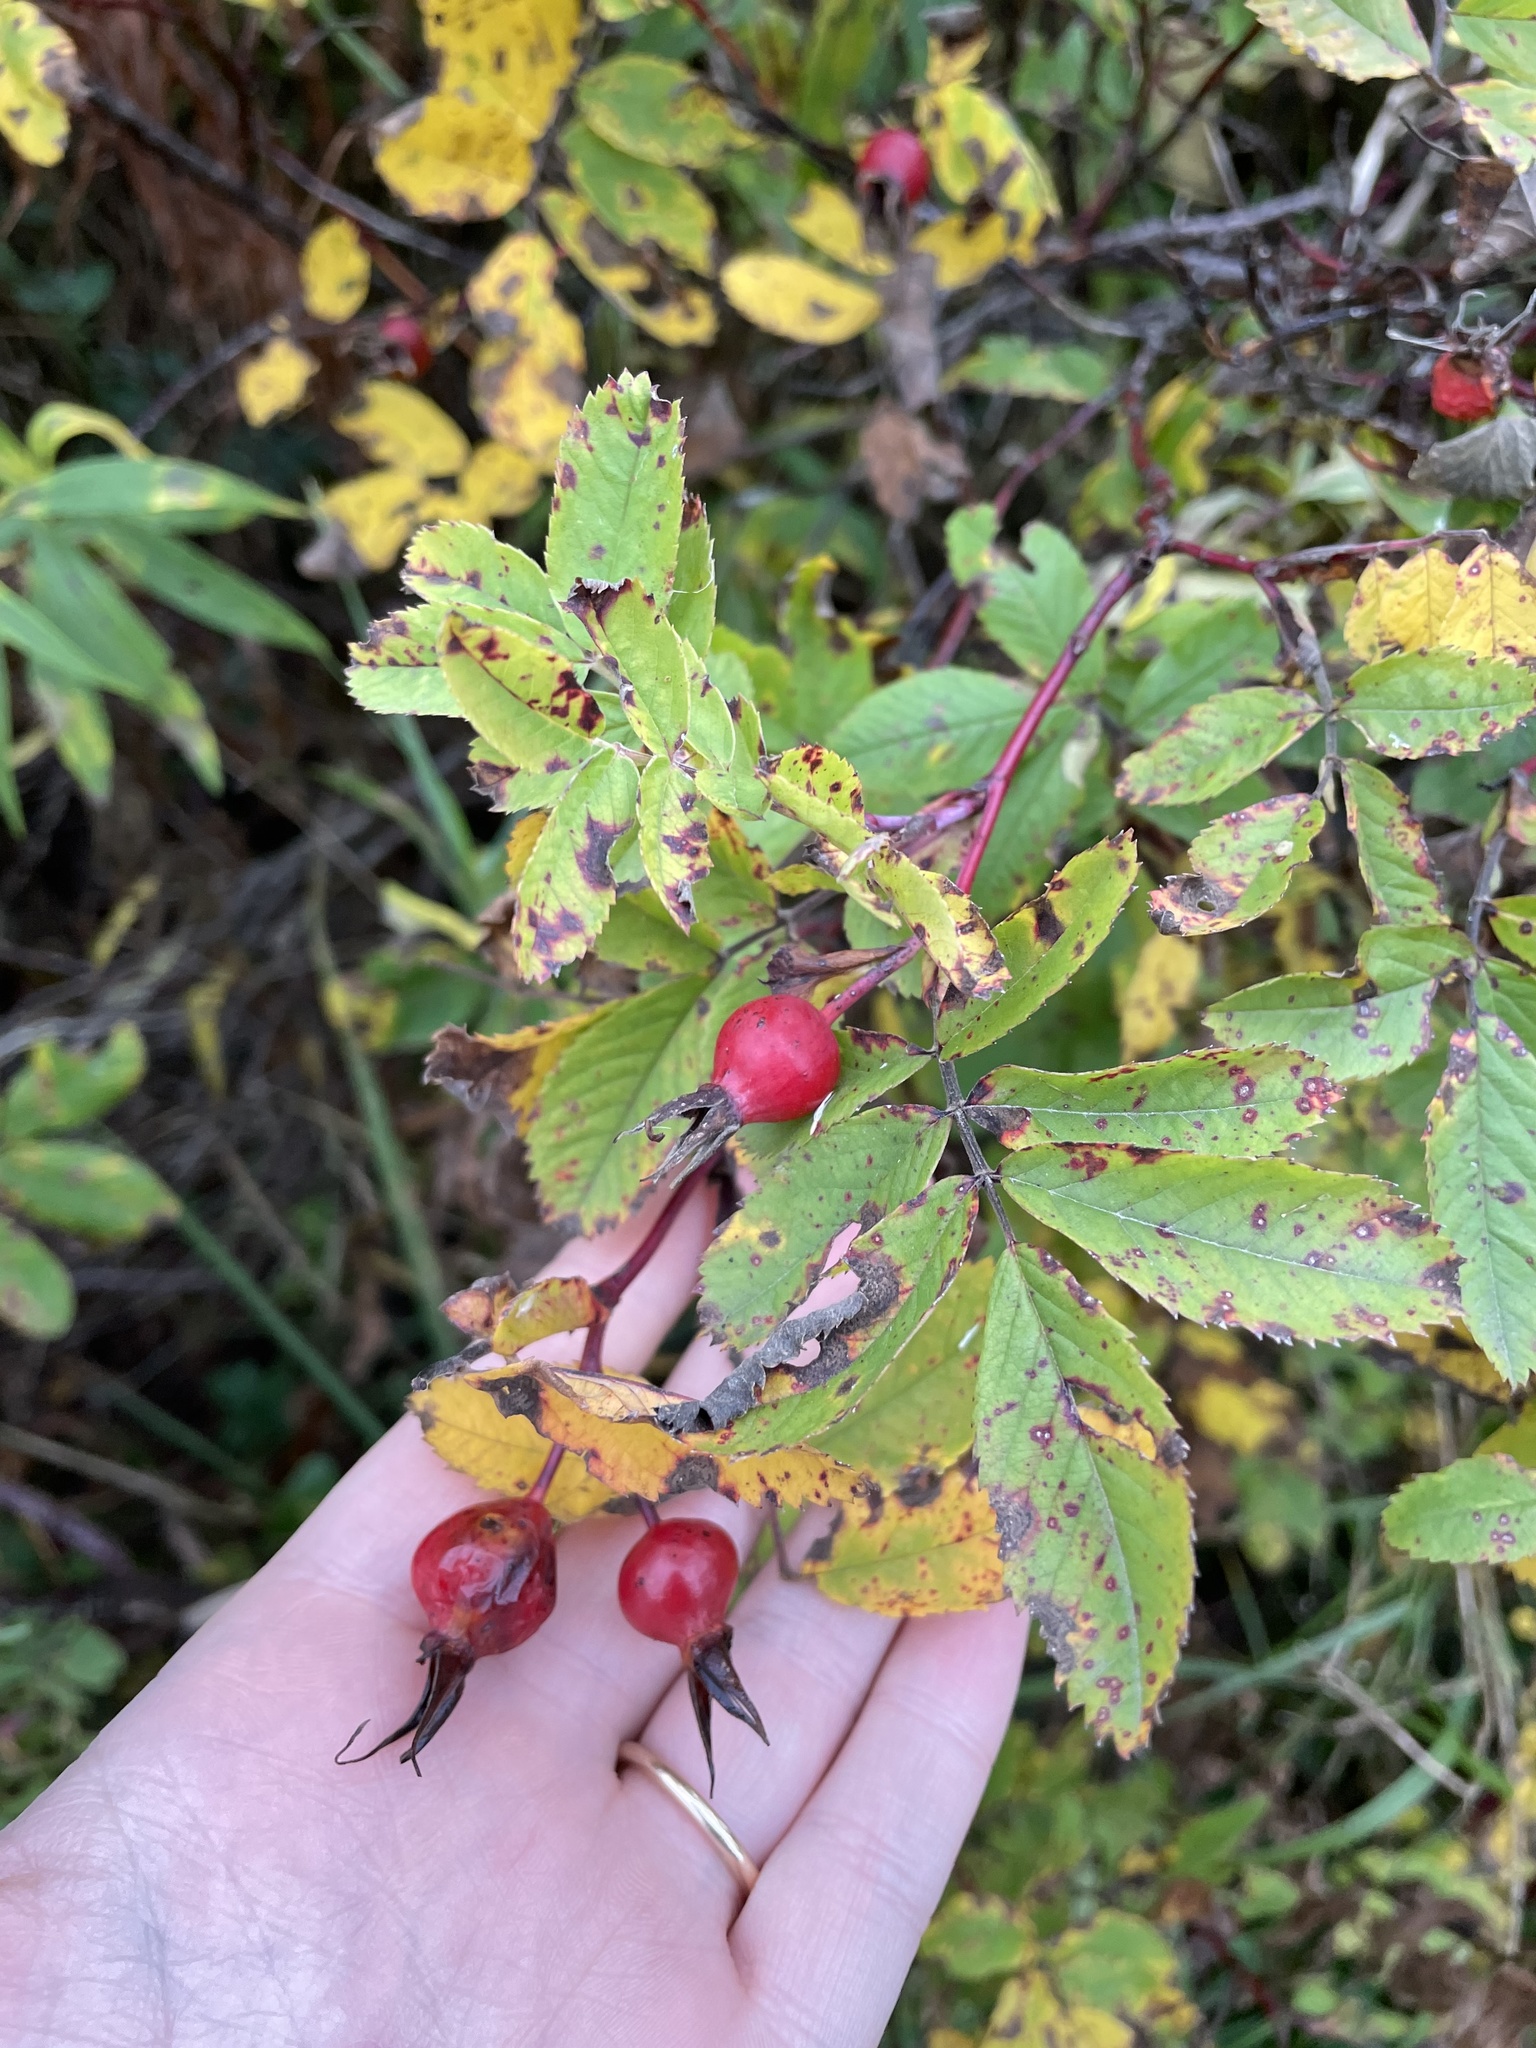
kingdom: Plantae
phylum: Tracheophyta
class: Magnoliopsida
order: Rosales
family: Rosaceae
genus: Rosa
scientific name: Rosa blanda
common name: Smooth rose
